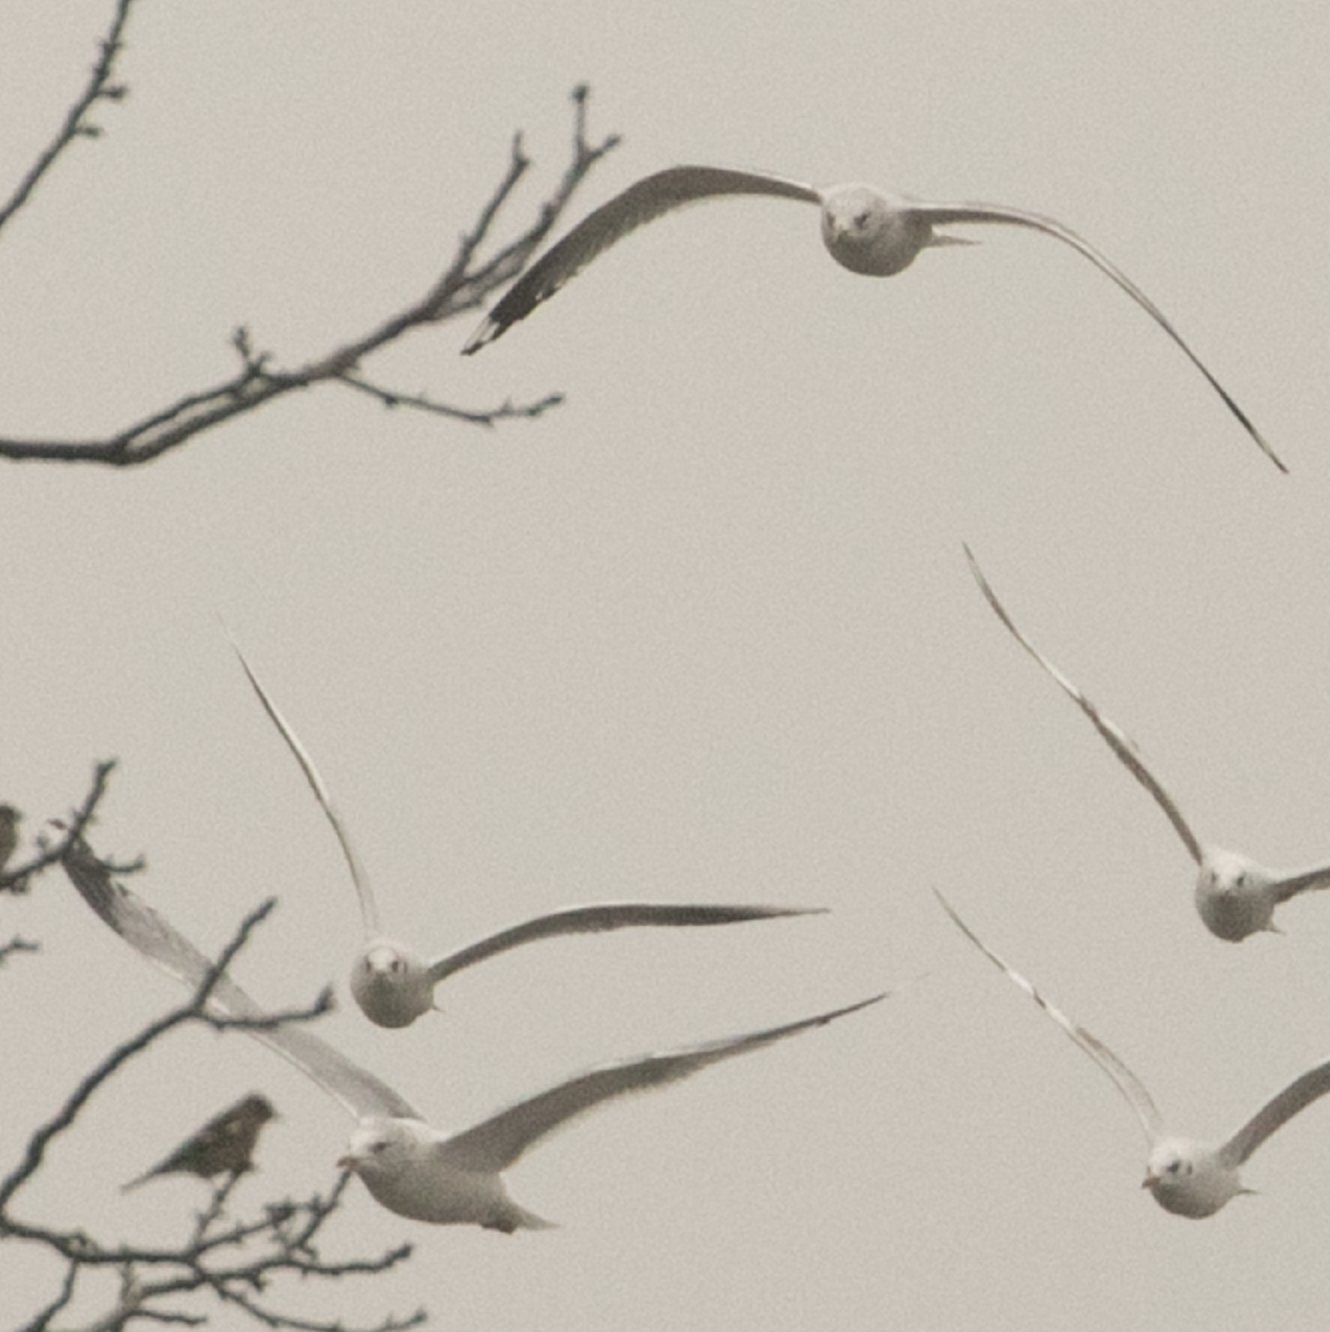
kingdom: Animalia
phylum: Chordata
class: Aves
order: Charadriiformes
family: Laridae
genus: Larus
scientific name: Larus canus
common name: Mew gull
